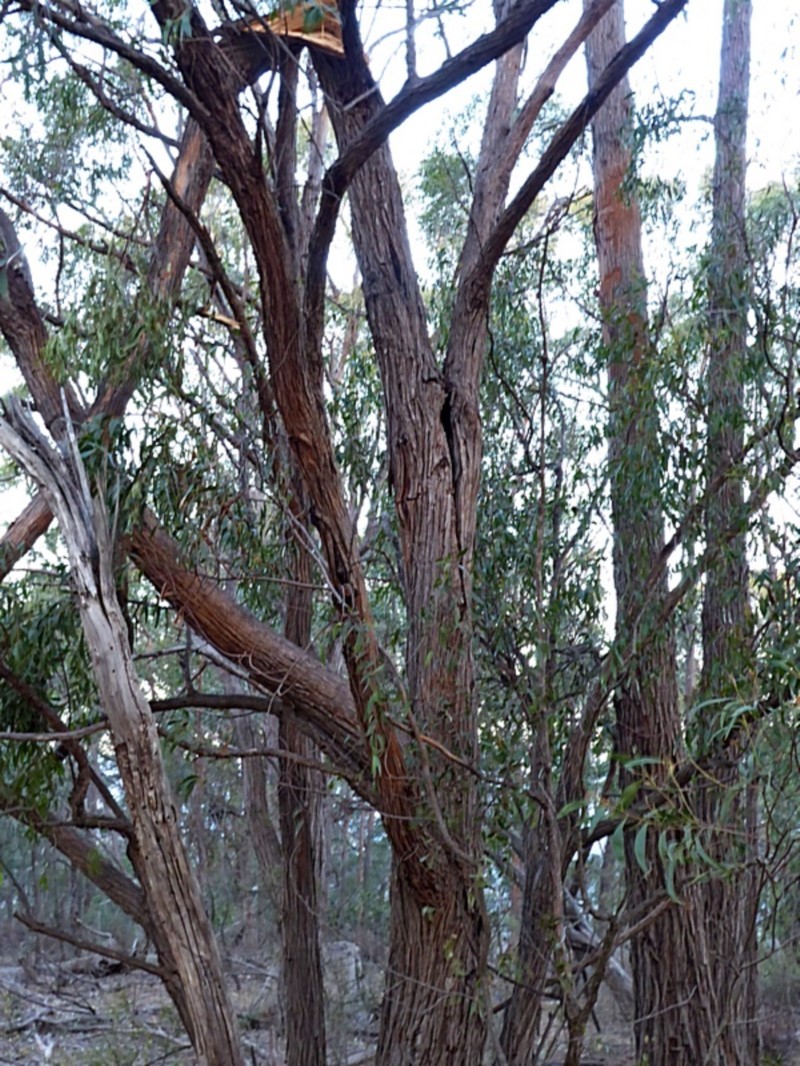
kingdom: Plantae
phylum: Tracheophyta
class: Magnoliopsida
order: Myrtales
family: Myrtaceae
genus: Eucalyptus
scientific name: Eucalyptus eugenioides
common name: Narrow-leaved-stringybark
